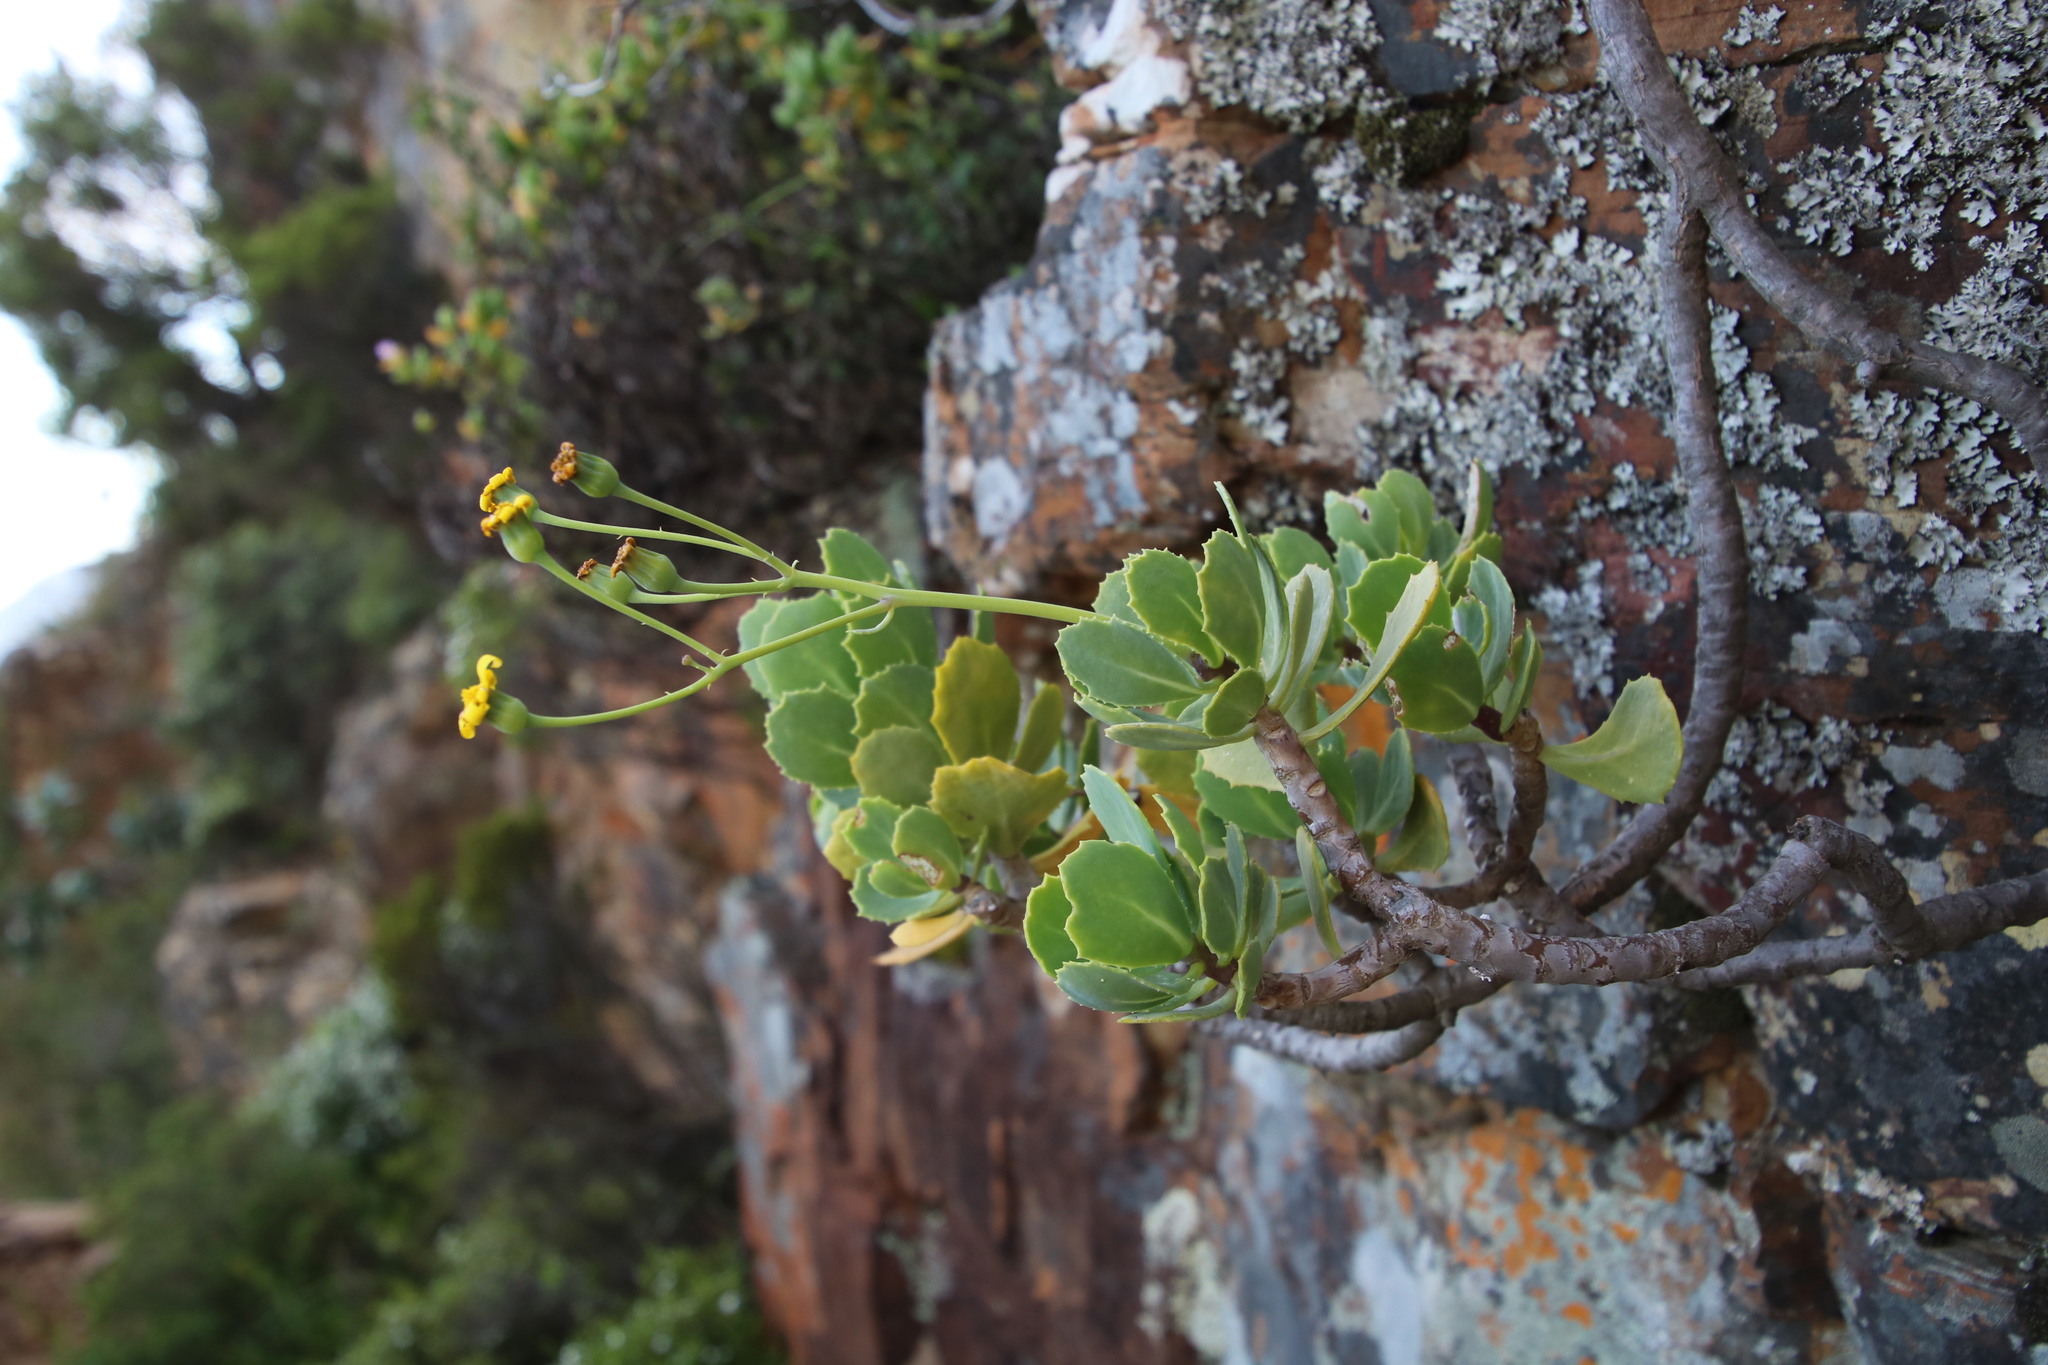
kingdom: Plantae
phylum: Tracheophyta
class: Magnoliopsida
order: Asterales
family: Asteraceae
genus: Othonna
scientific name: Othonna dentata
